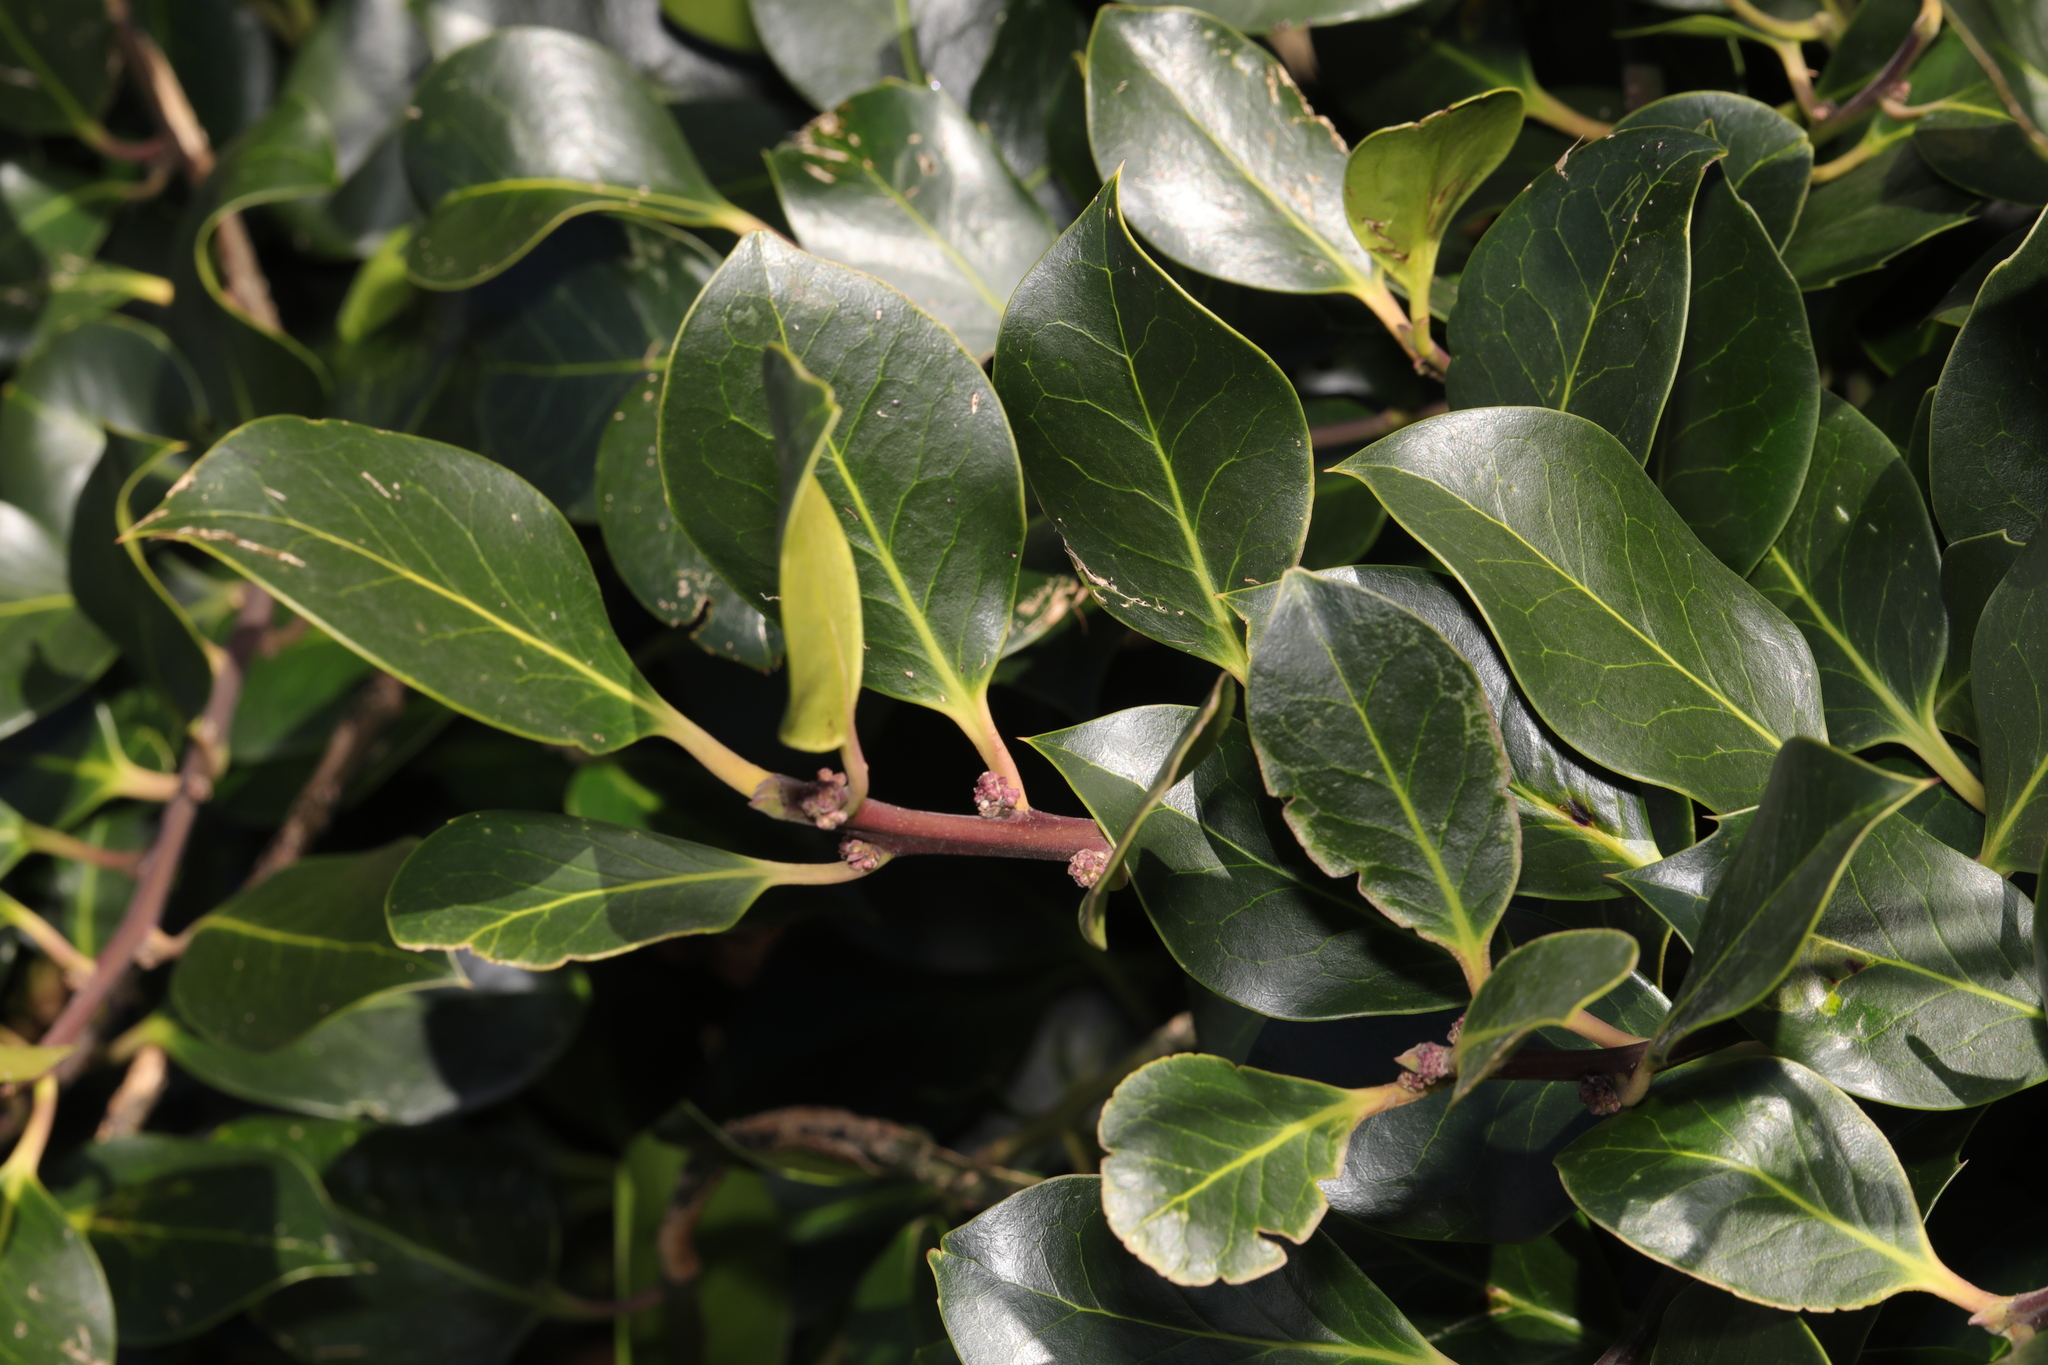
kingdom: Plantae
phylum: Tracheophyta
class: Magnoliopsida
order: Aquifoliales
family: Aquifoliaceae
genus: Ilex
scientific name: Ilex altaclerensis
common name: Highclere holly
